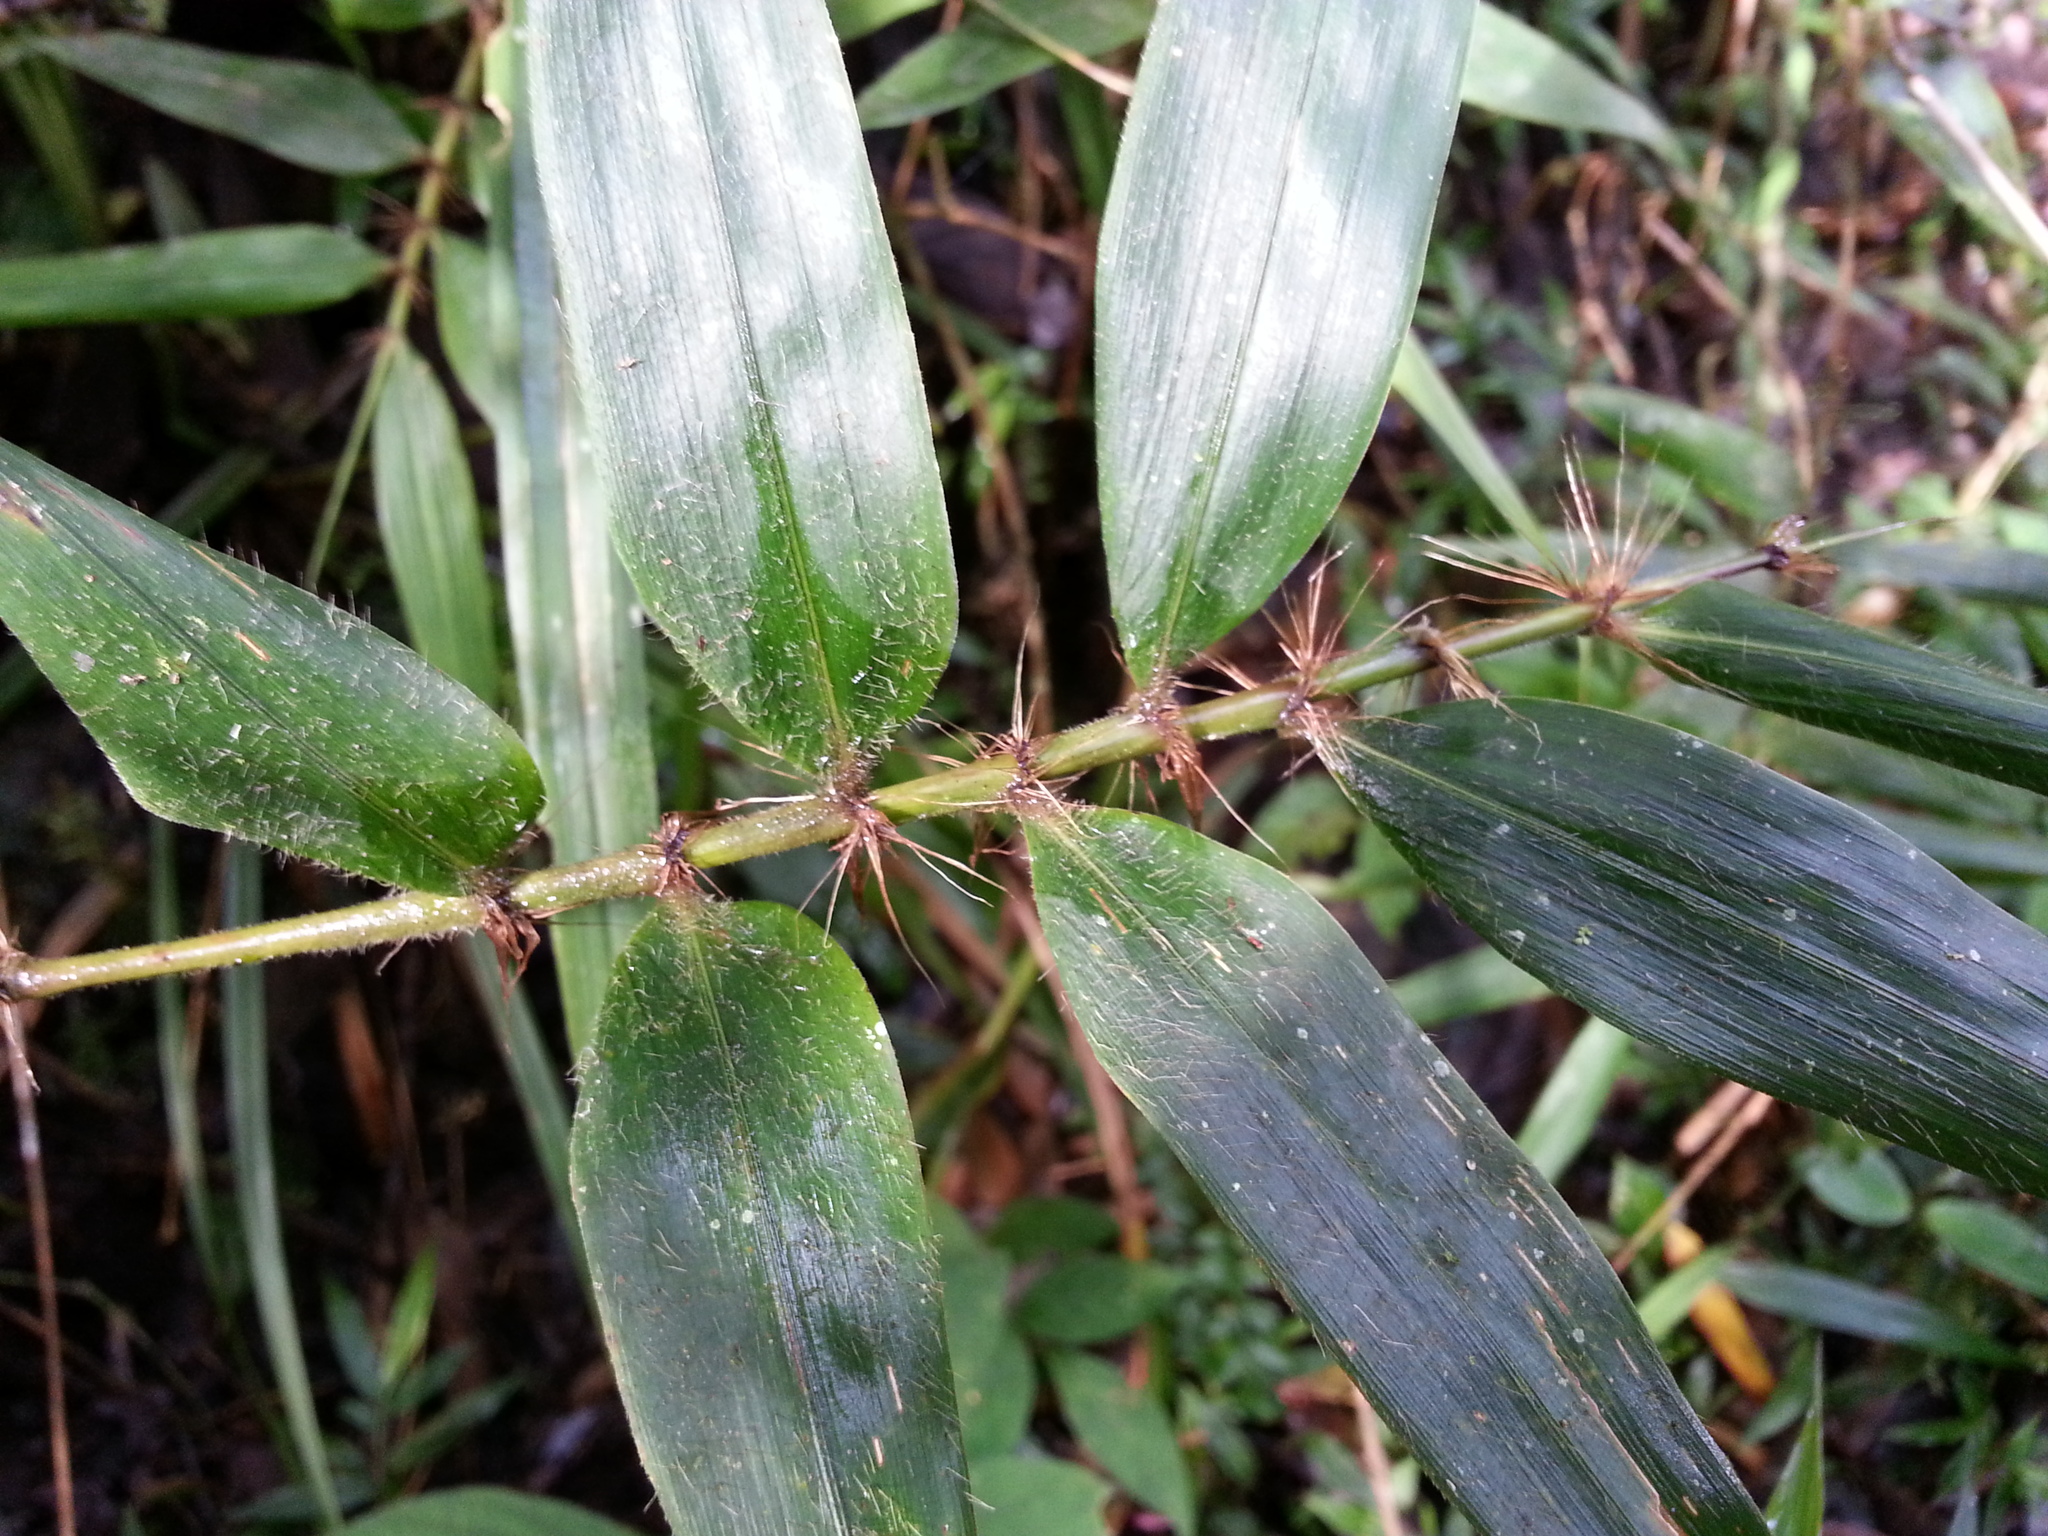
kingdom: Plantae
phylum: Tracheophyta
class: Liliopsida
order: Poales
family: Poaceae
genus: Decaryochloa
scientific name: Decaryochloa diadelpha
